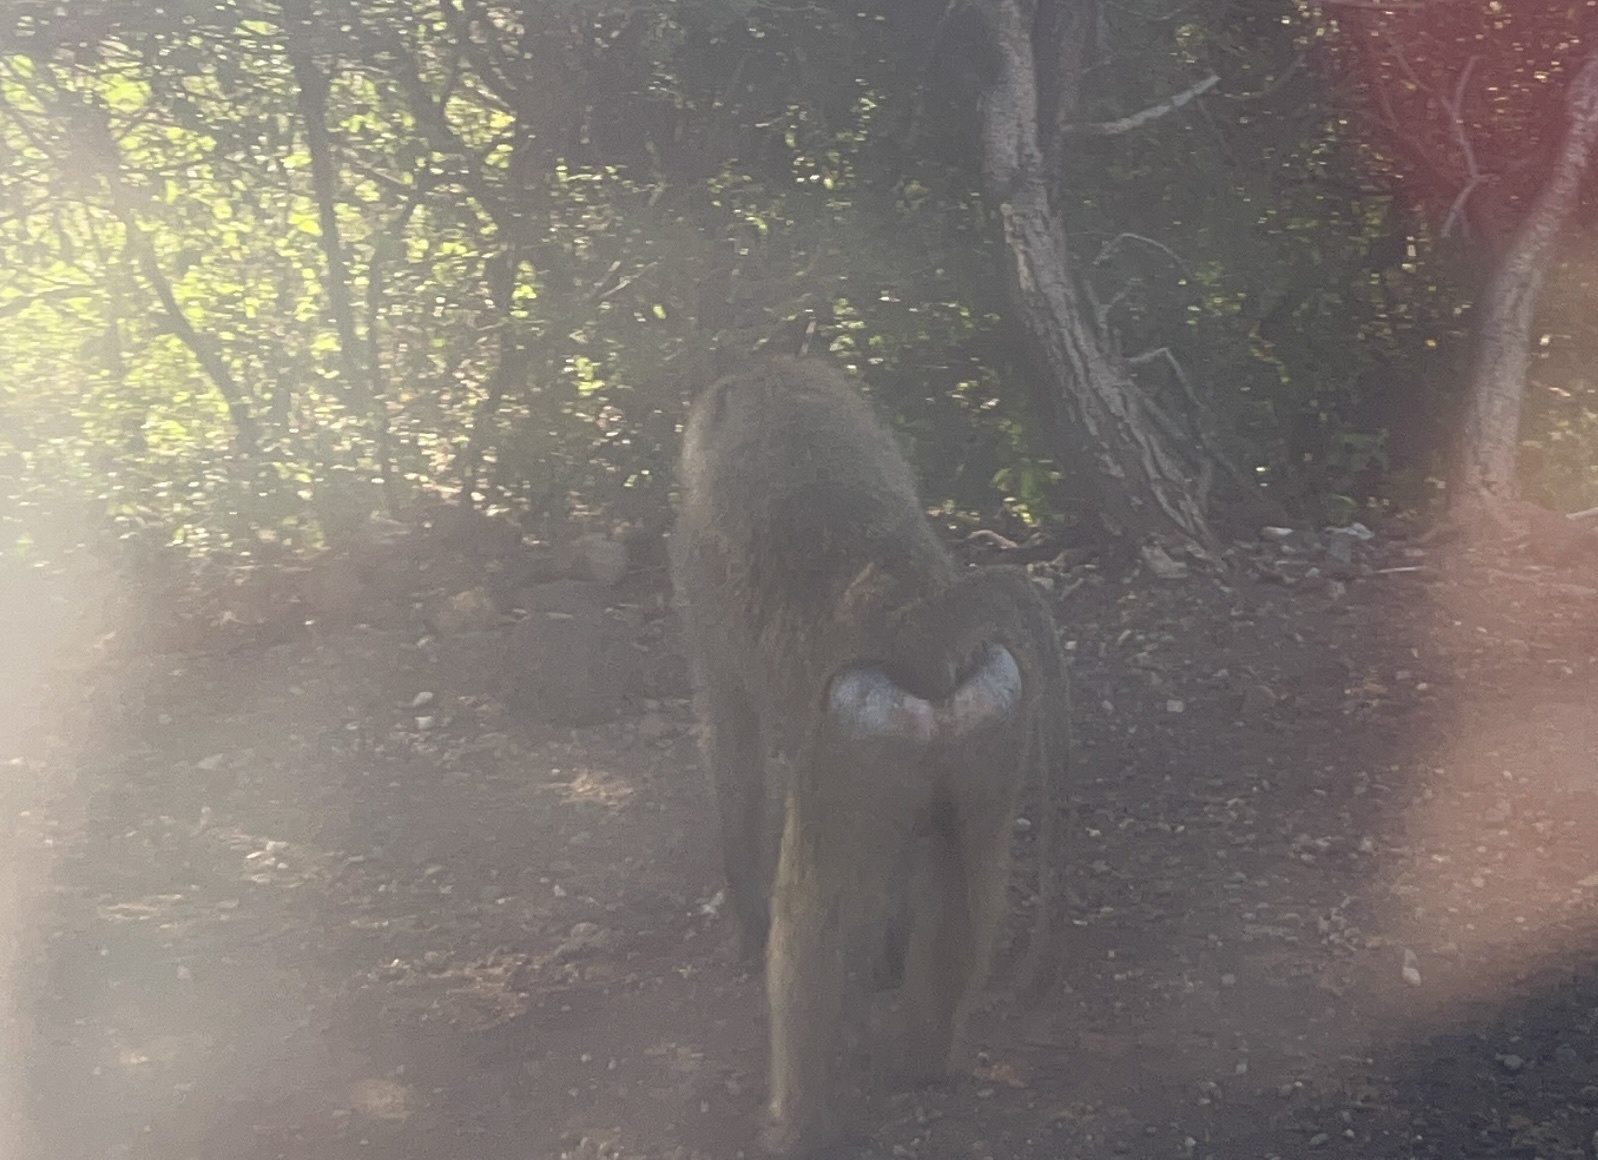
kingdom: Animalia
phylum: Chordata
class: Mammalia
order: Primates
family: Cercopithecidae
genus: Papio
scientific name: Papio anubis
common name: Olive baboon
